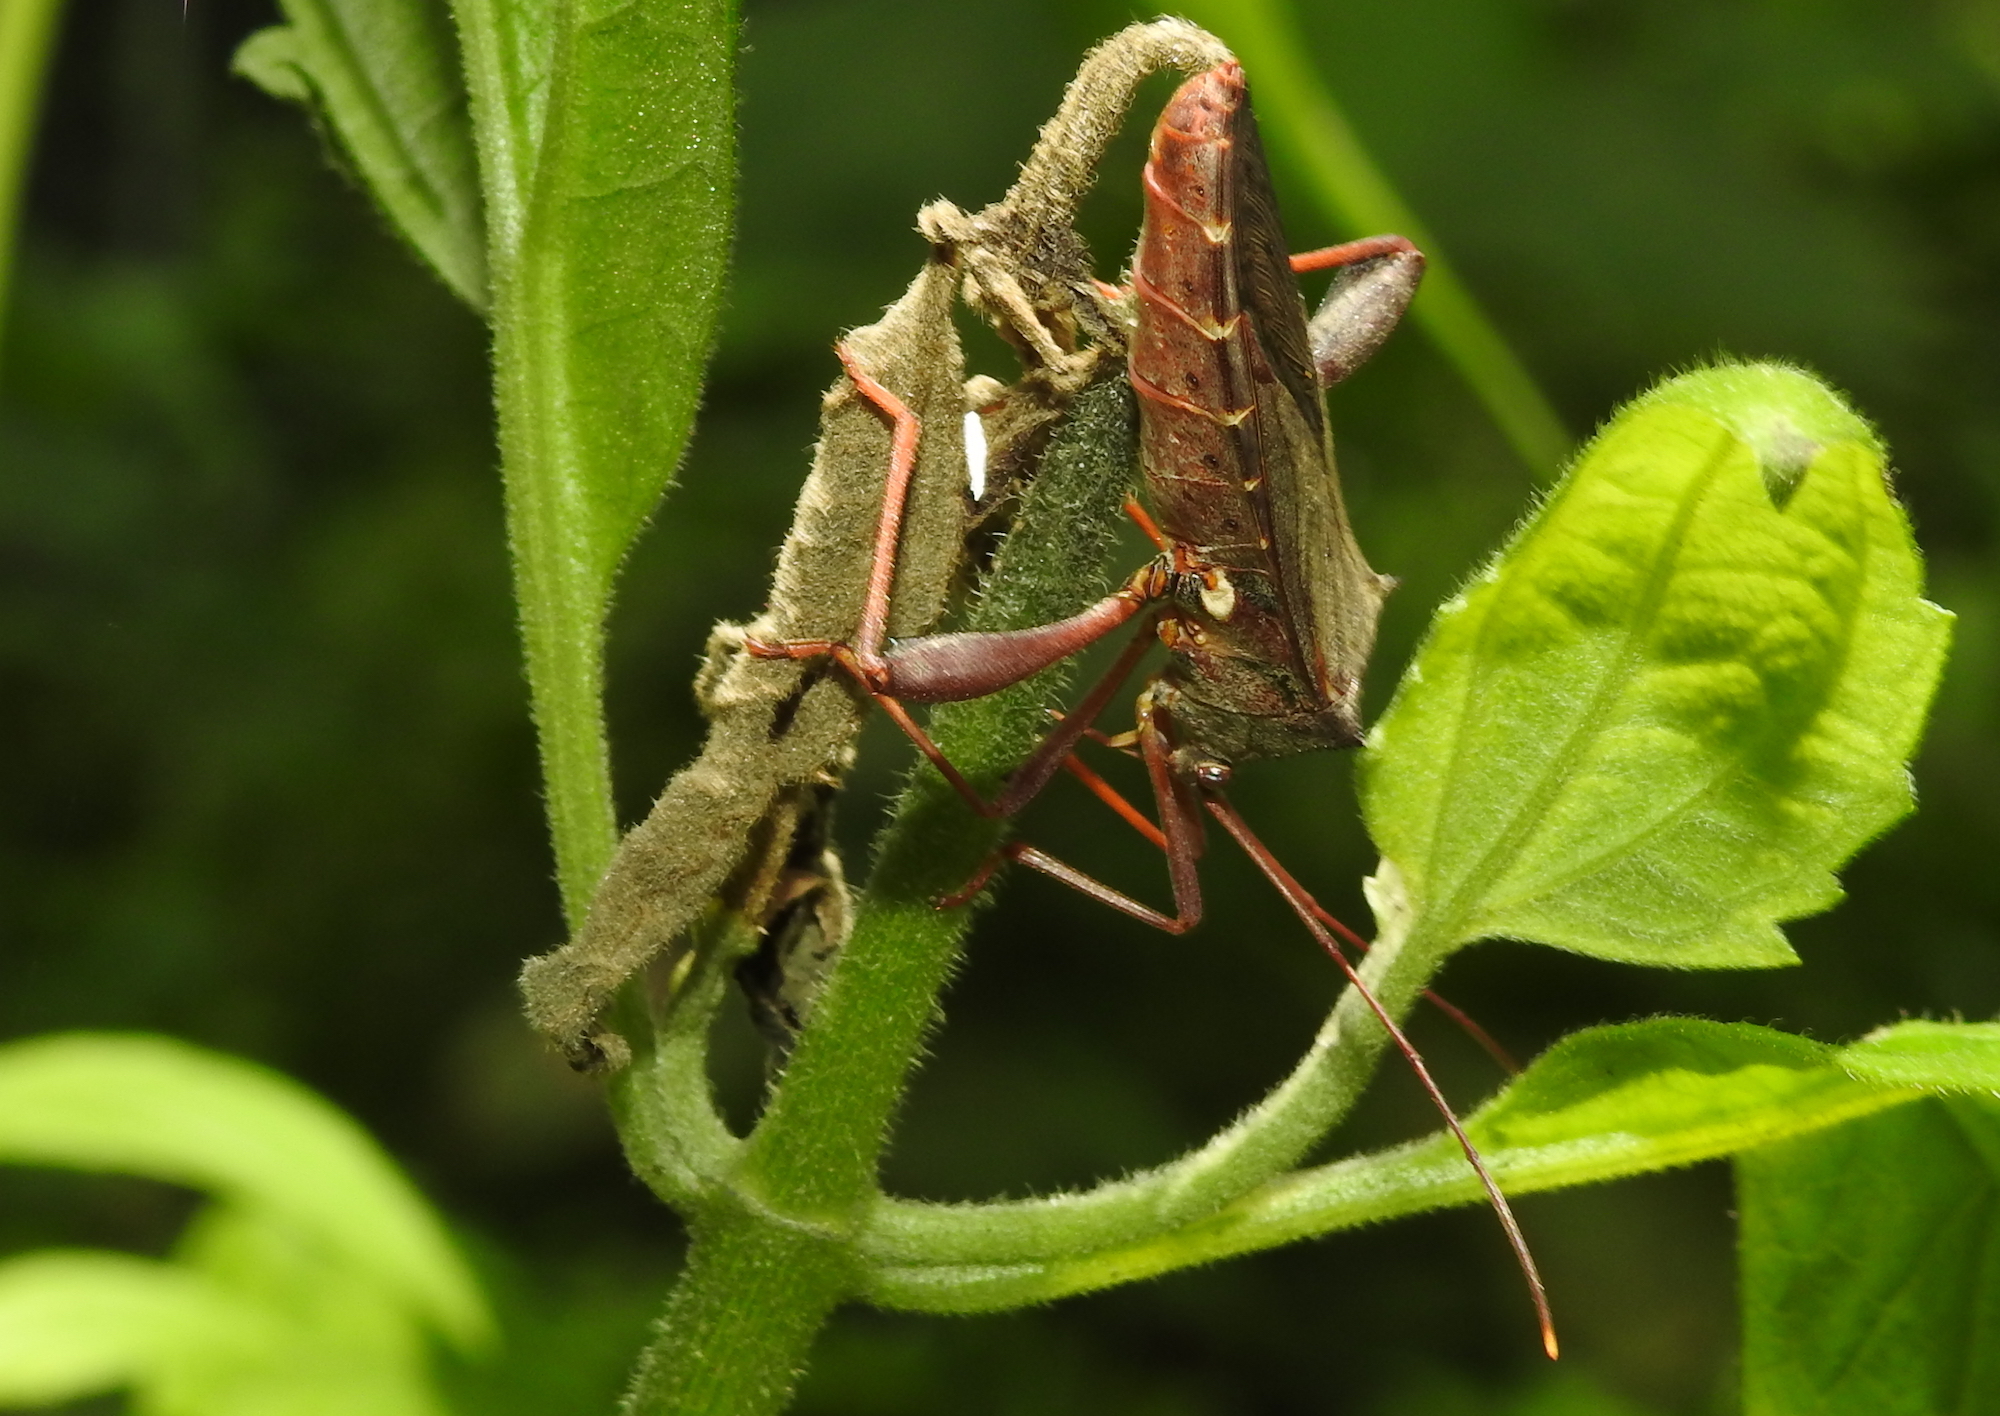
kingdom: Animalia
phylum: Arthropoda
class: Insecta
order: Hemiptera
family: Coreidae
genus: Mictis
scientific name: Mictis longicornis
